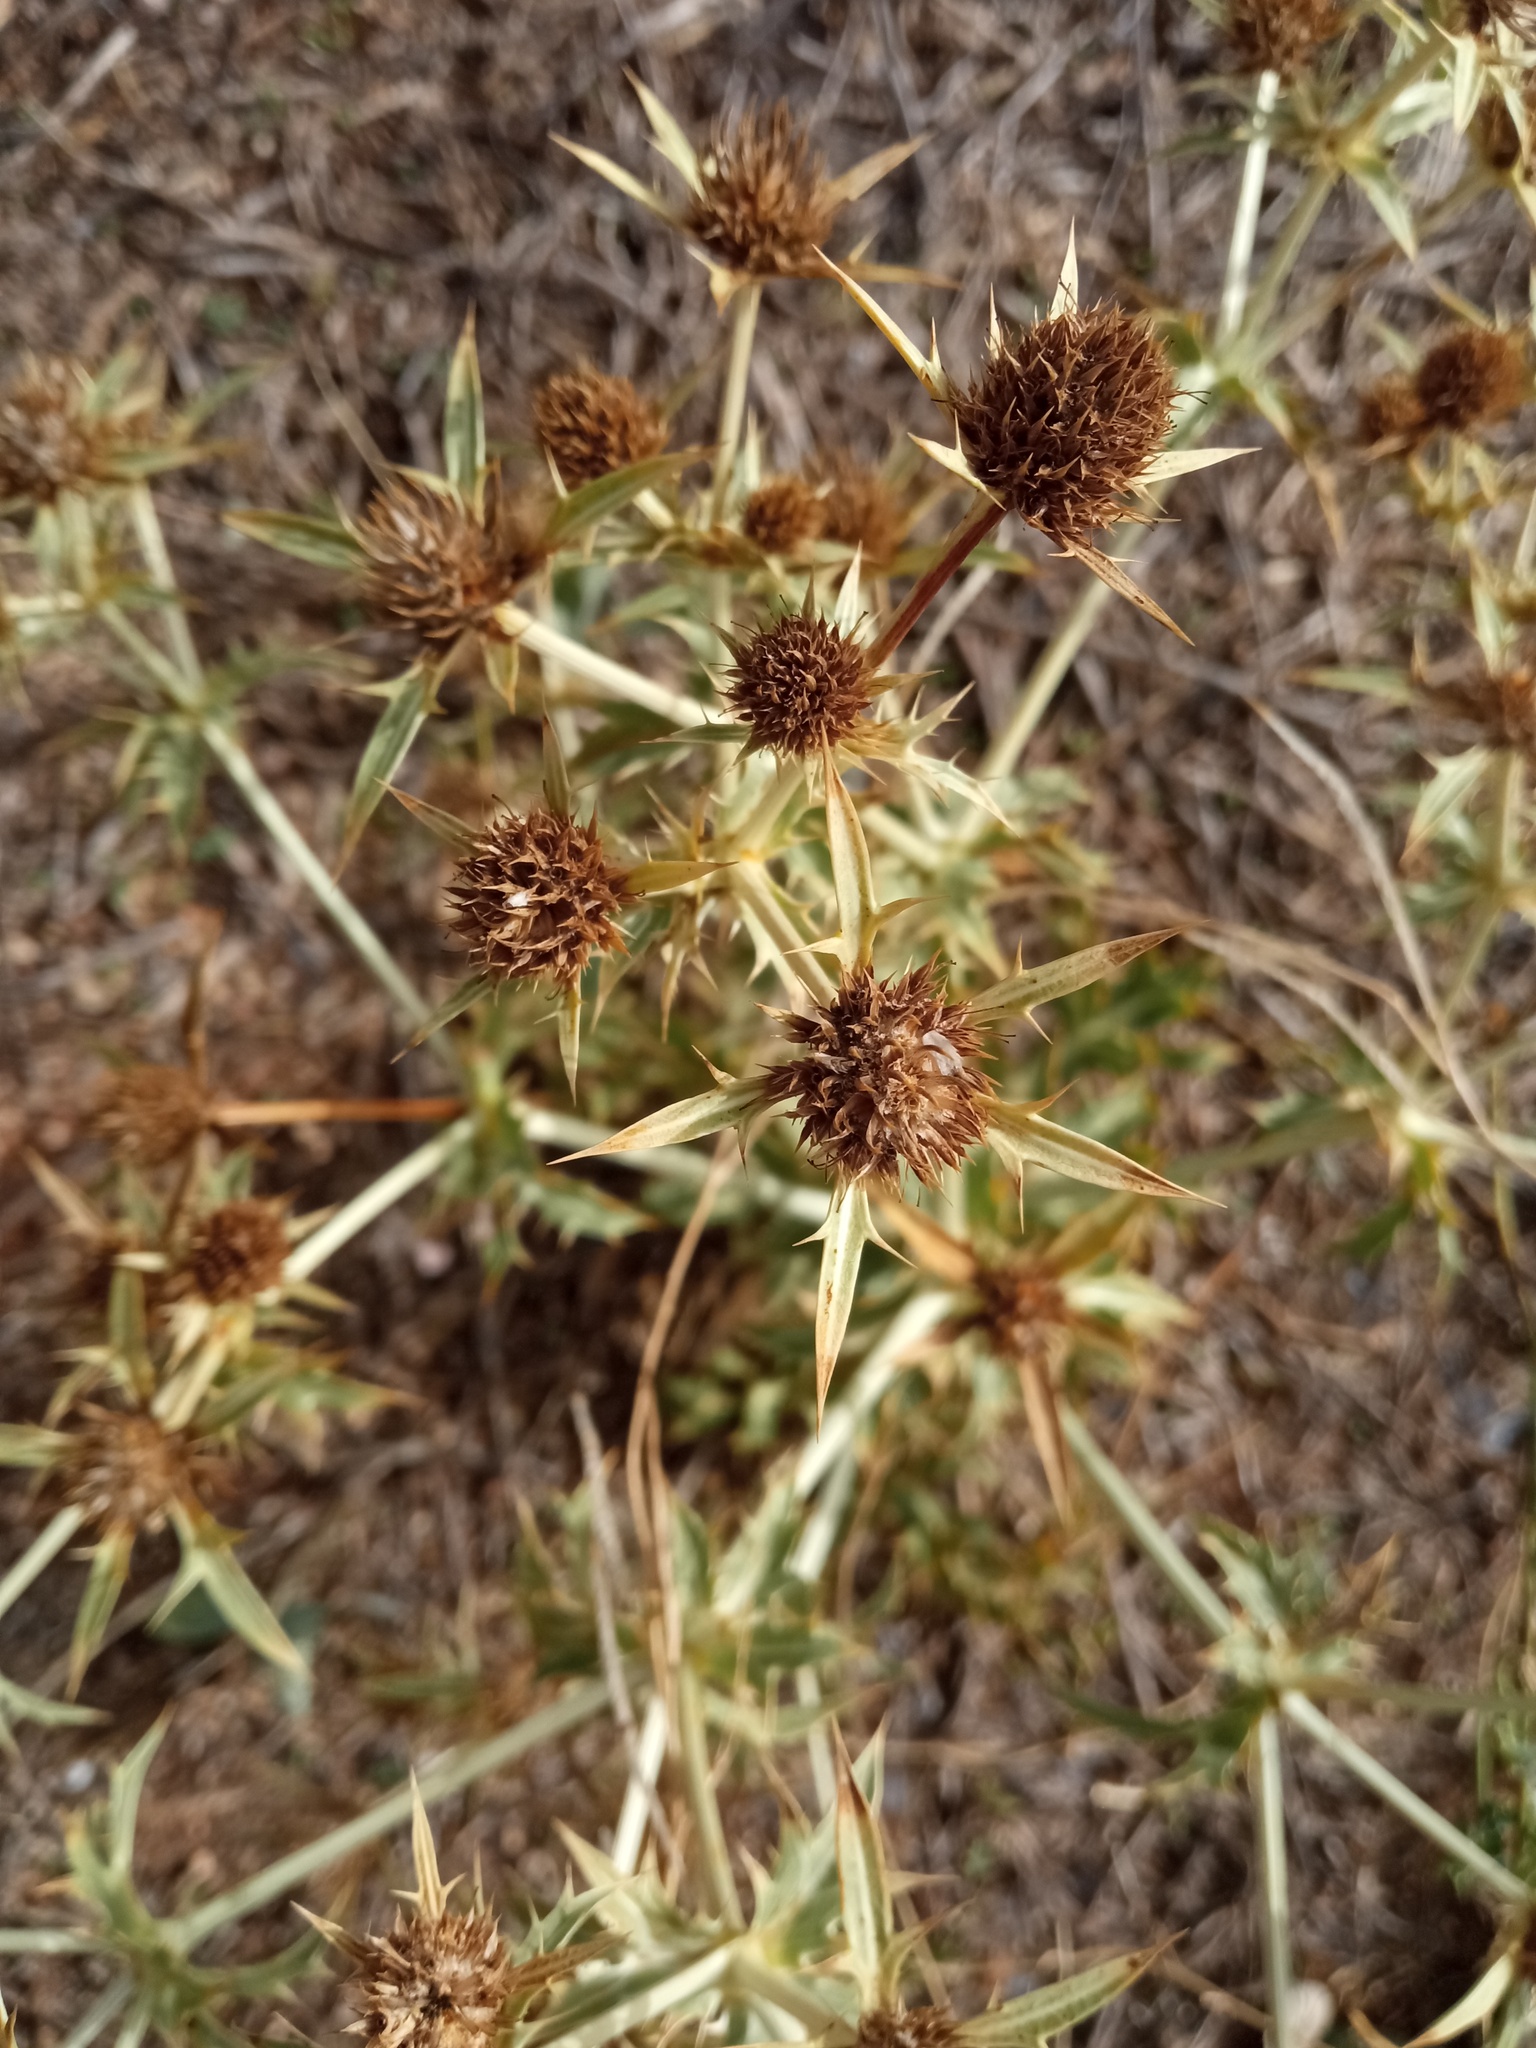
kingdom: Plantae
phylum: Tracheophyta
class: Magnoliopsida
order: Apiales
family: Apiaceae
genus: Eryngium
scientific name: Eryngium campestre
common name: Field eryngo
